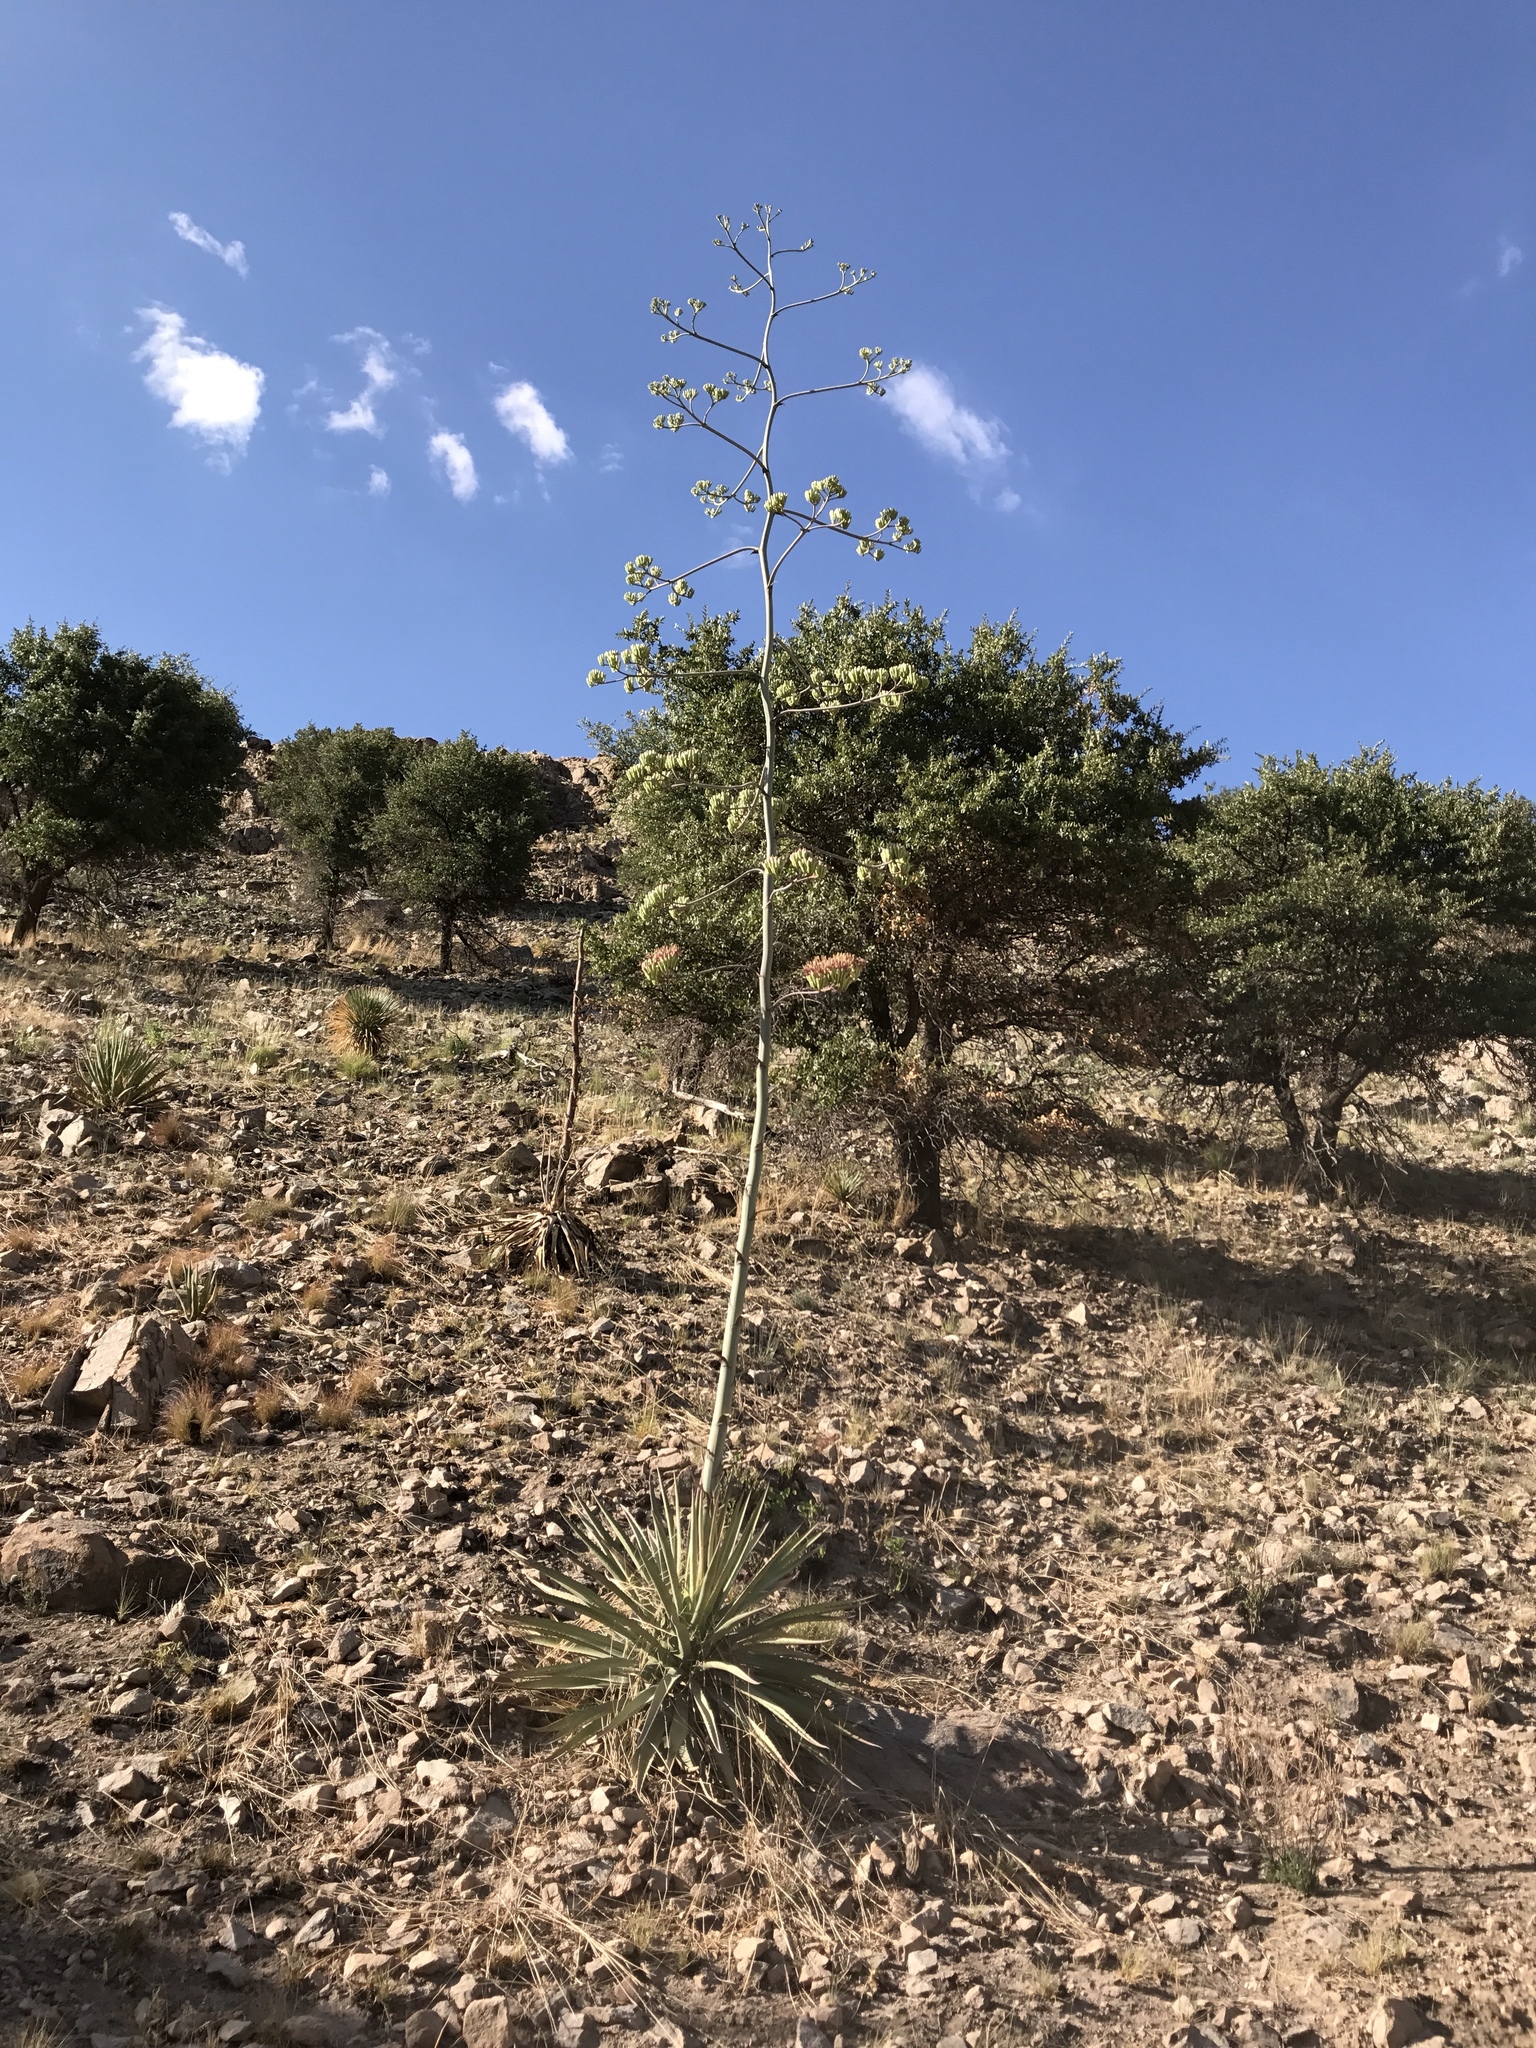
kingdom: Plantae
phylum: Tracheophyta
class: Liliopsida
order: Asparagales
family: Asparagaceae
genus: Agave
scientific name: Agave palmeri
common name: Palmer agave
